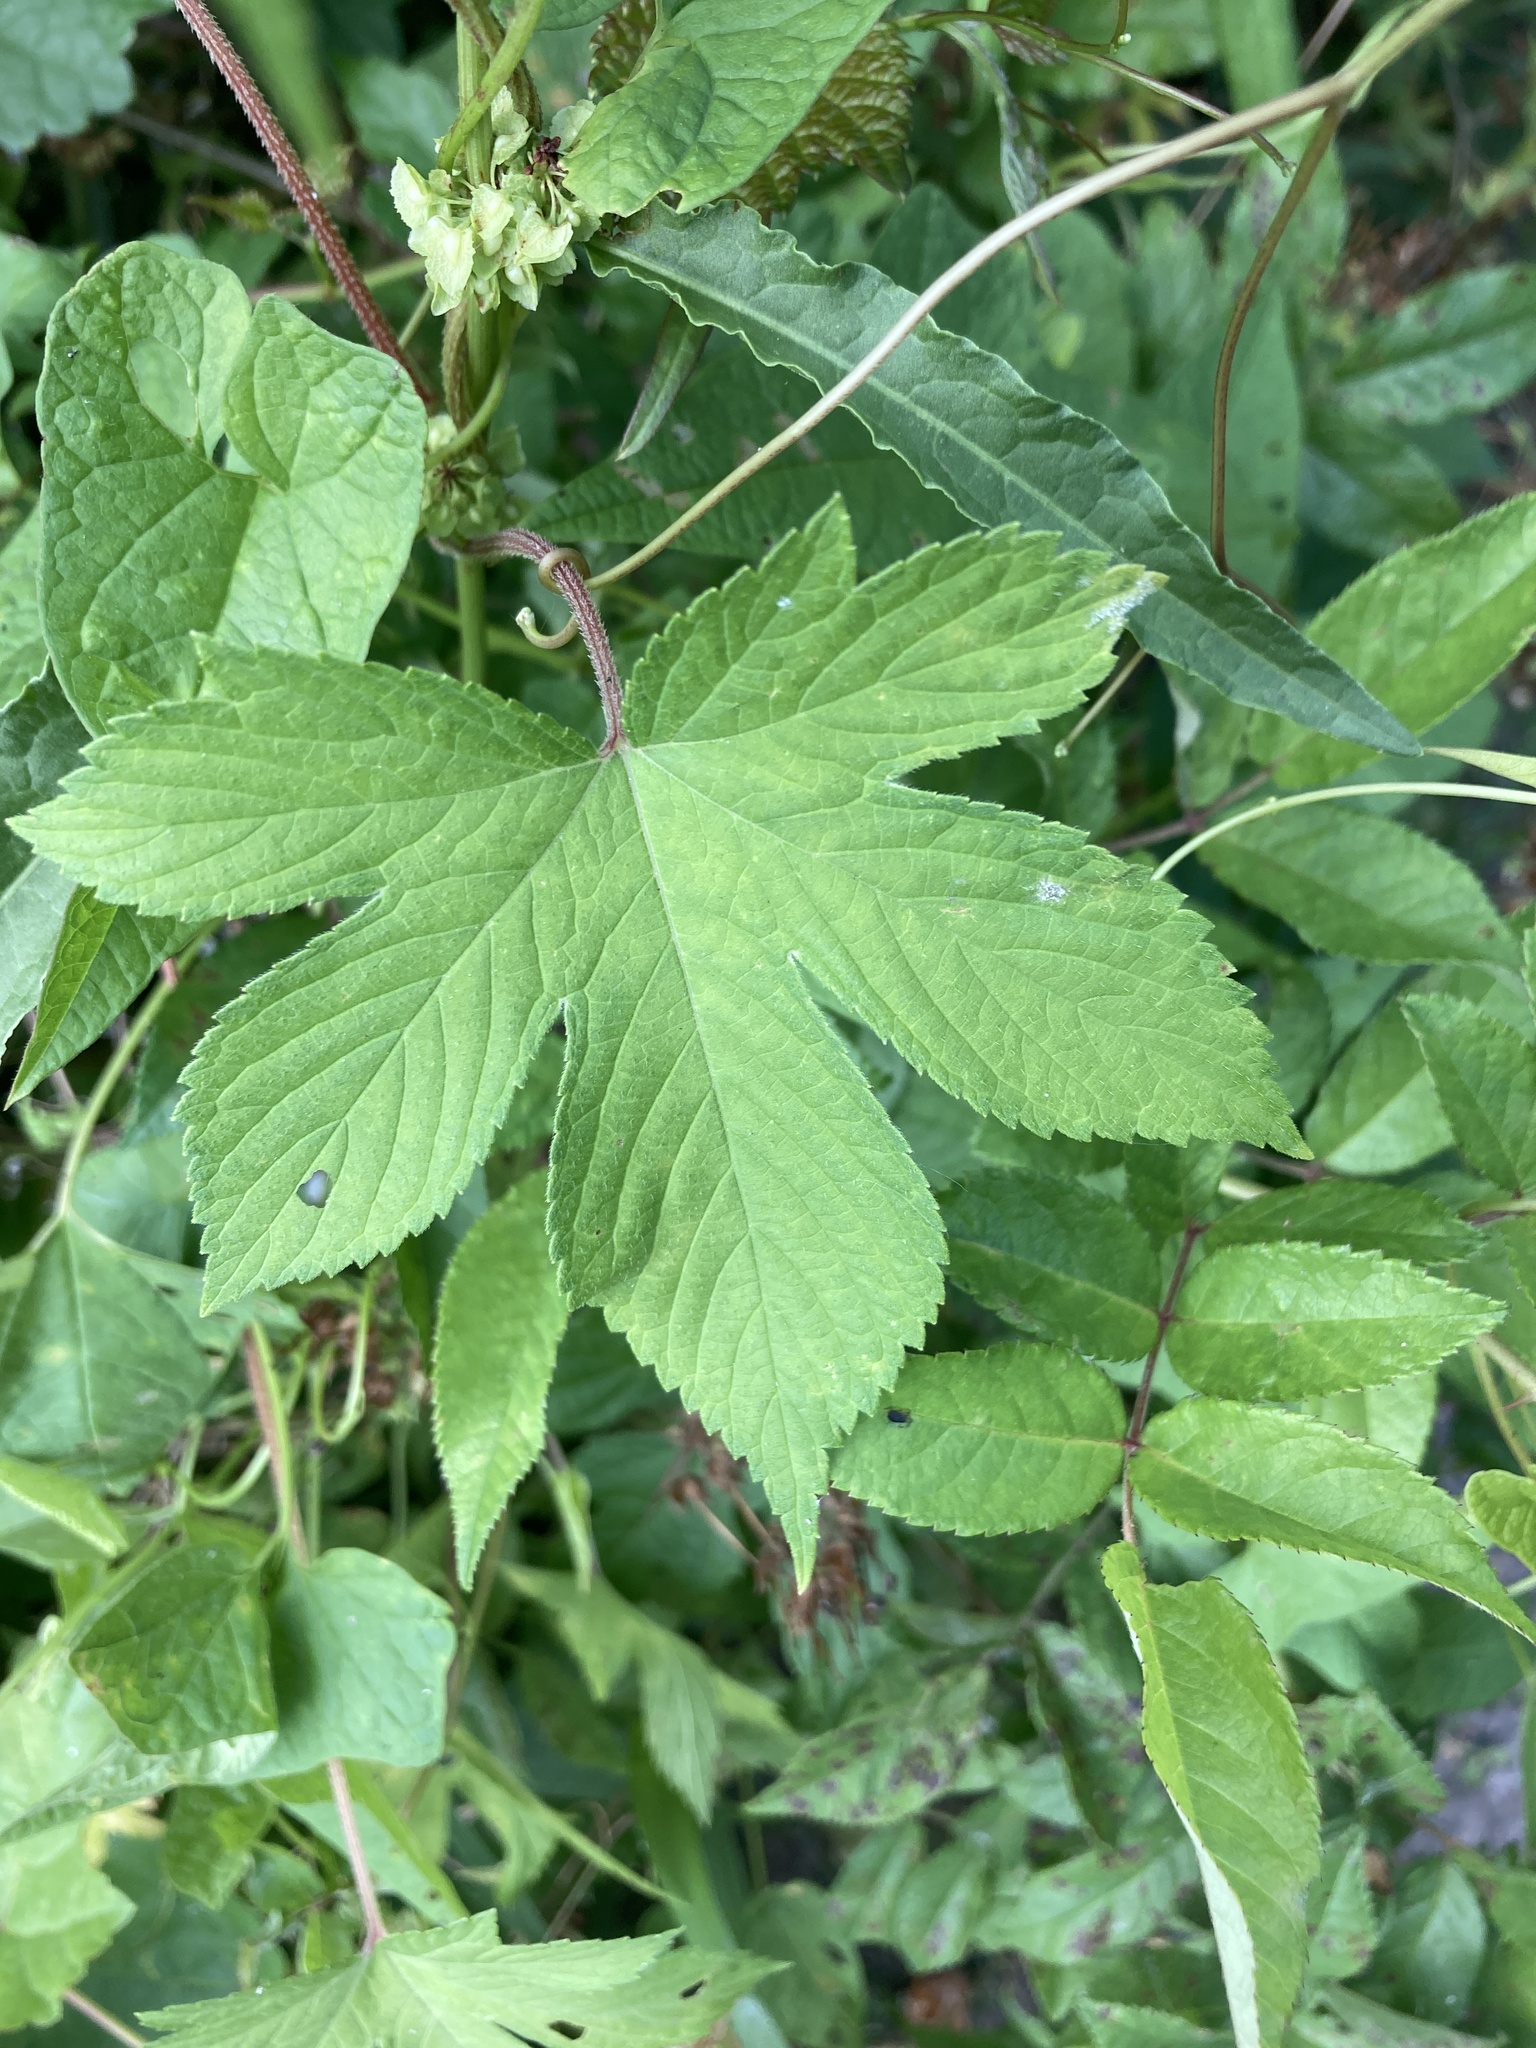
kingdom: Plantae
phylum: Tracheophyta
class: Magnoliopsida
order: Rosales
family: Cannabaceae
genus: Humulus
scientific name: Humulus scandens
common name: Japanese hop
